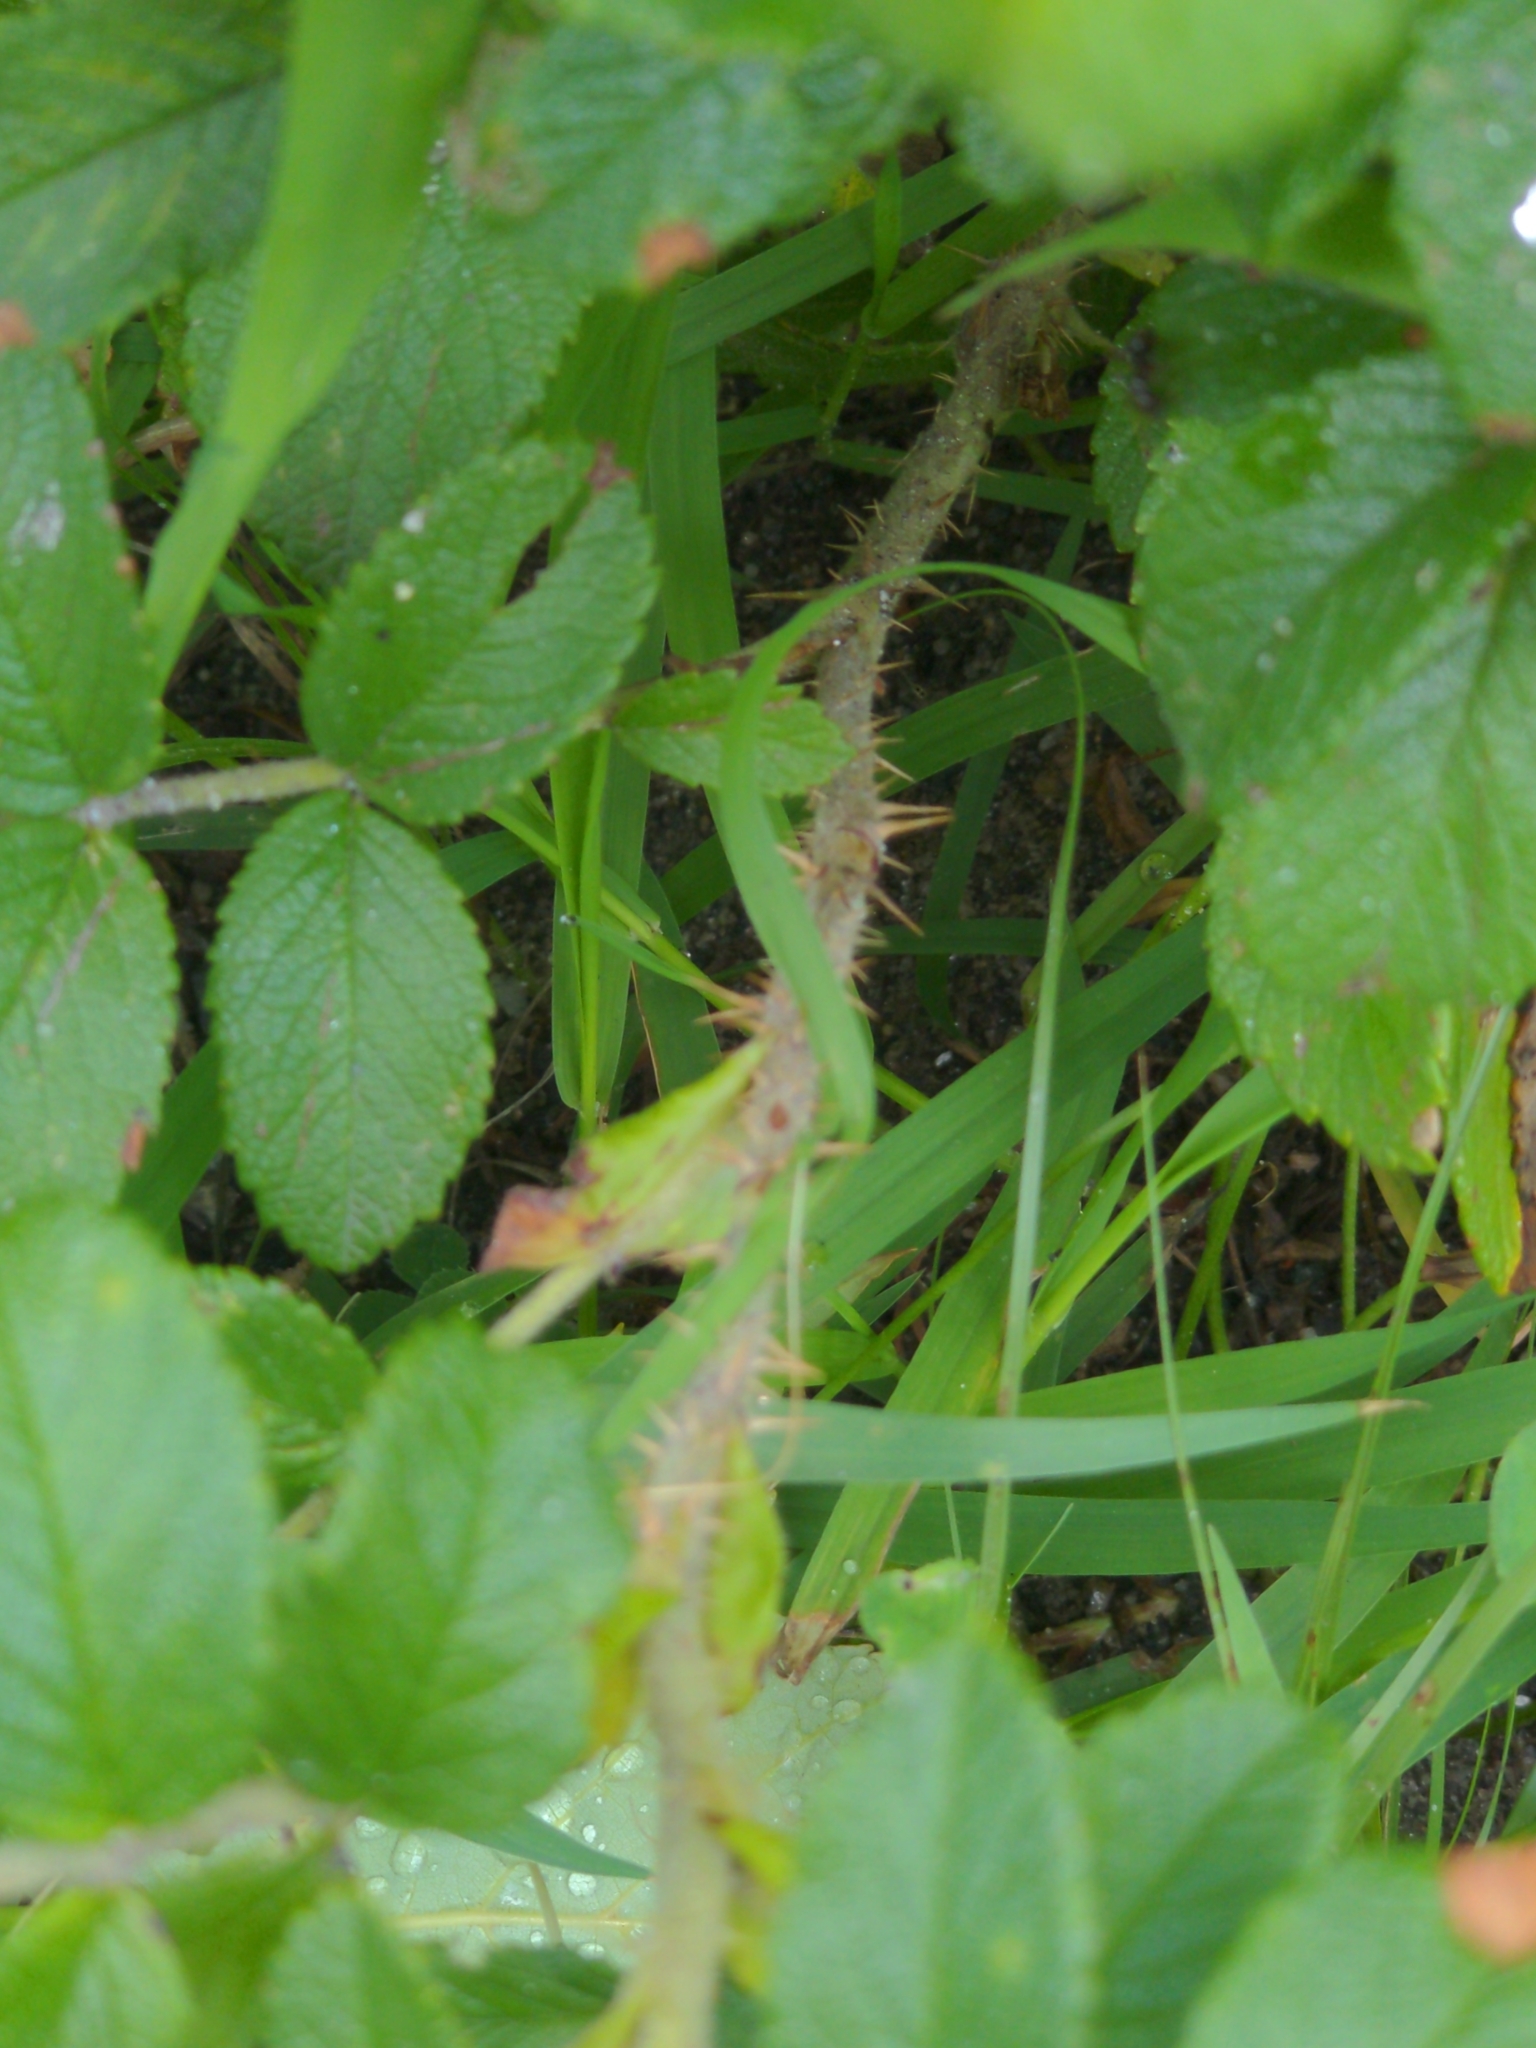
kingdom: Plantae
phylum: Tracheophyta
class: Magnoliopsida
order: Rosales
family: Rosaceae
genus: Rosa
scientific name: Rosa rugosa
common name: Japanese rose
